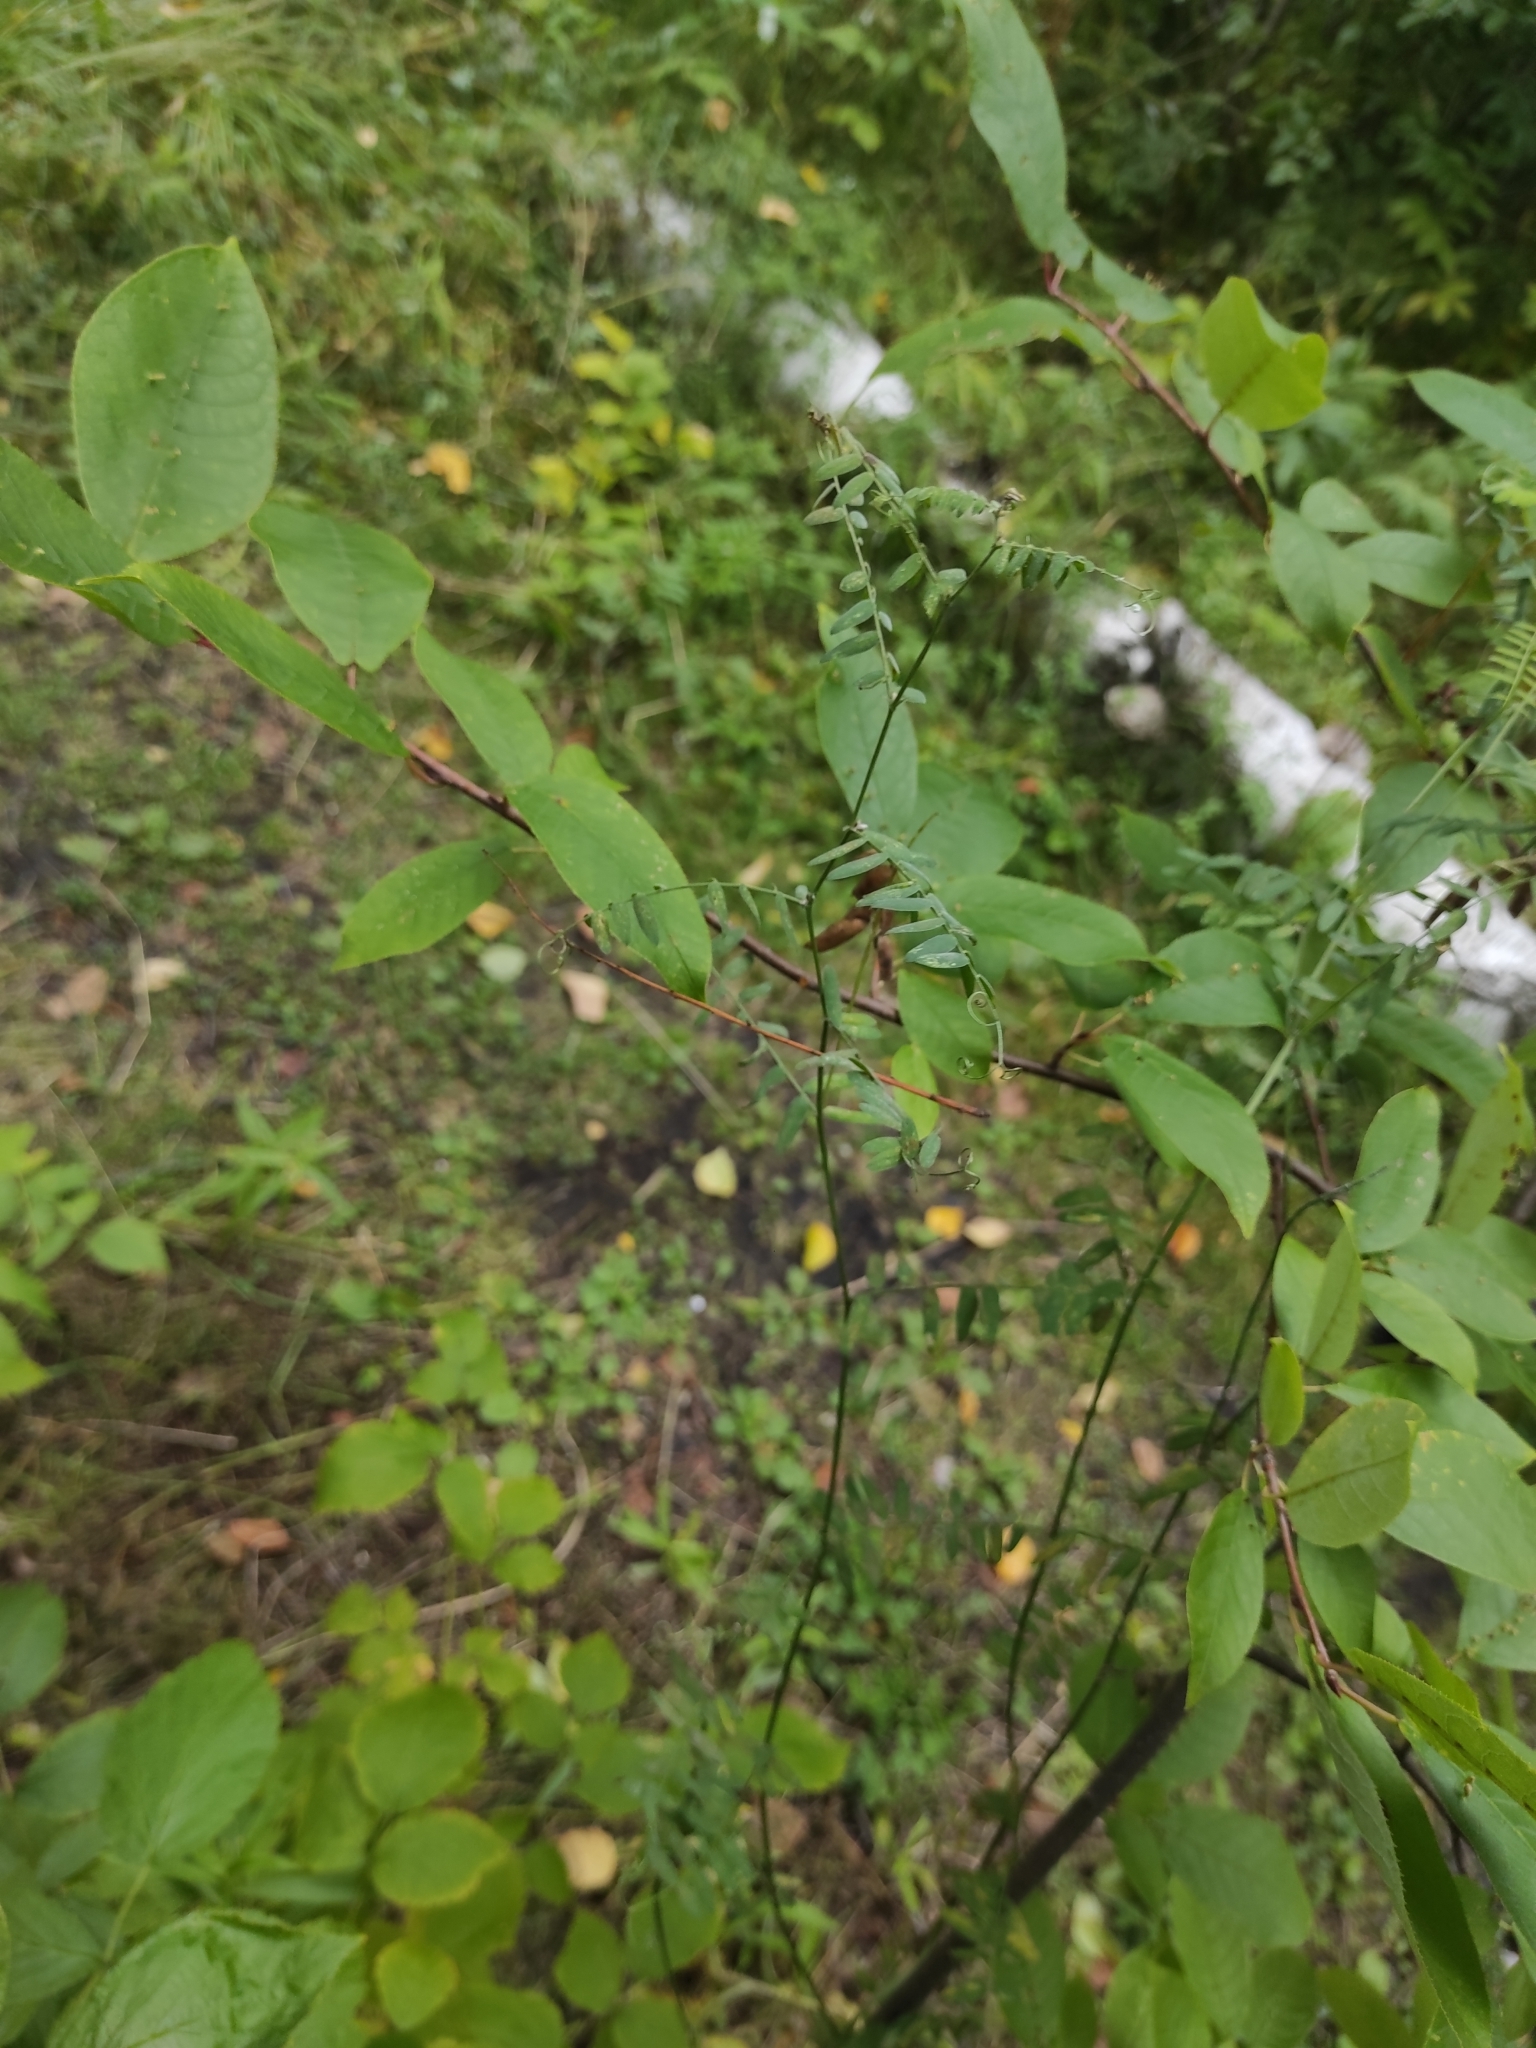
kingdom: Plantae
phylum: Tracheophyta
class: Magnoliopsida
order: Fabales
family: Fabaceae
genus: Vicia
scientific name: Vicia cracca
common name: Bird vetch
